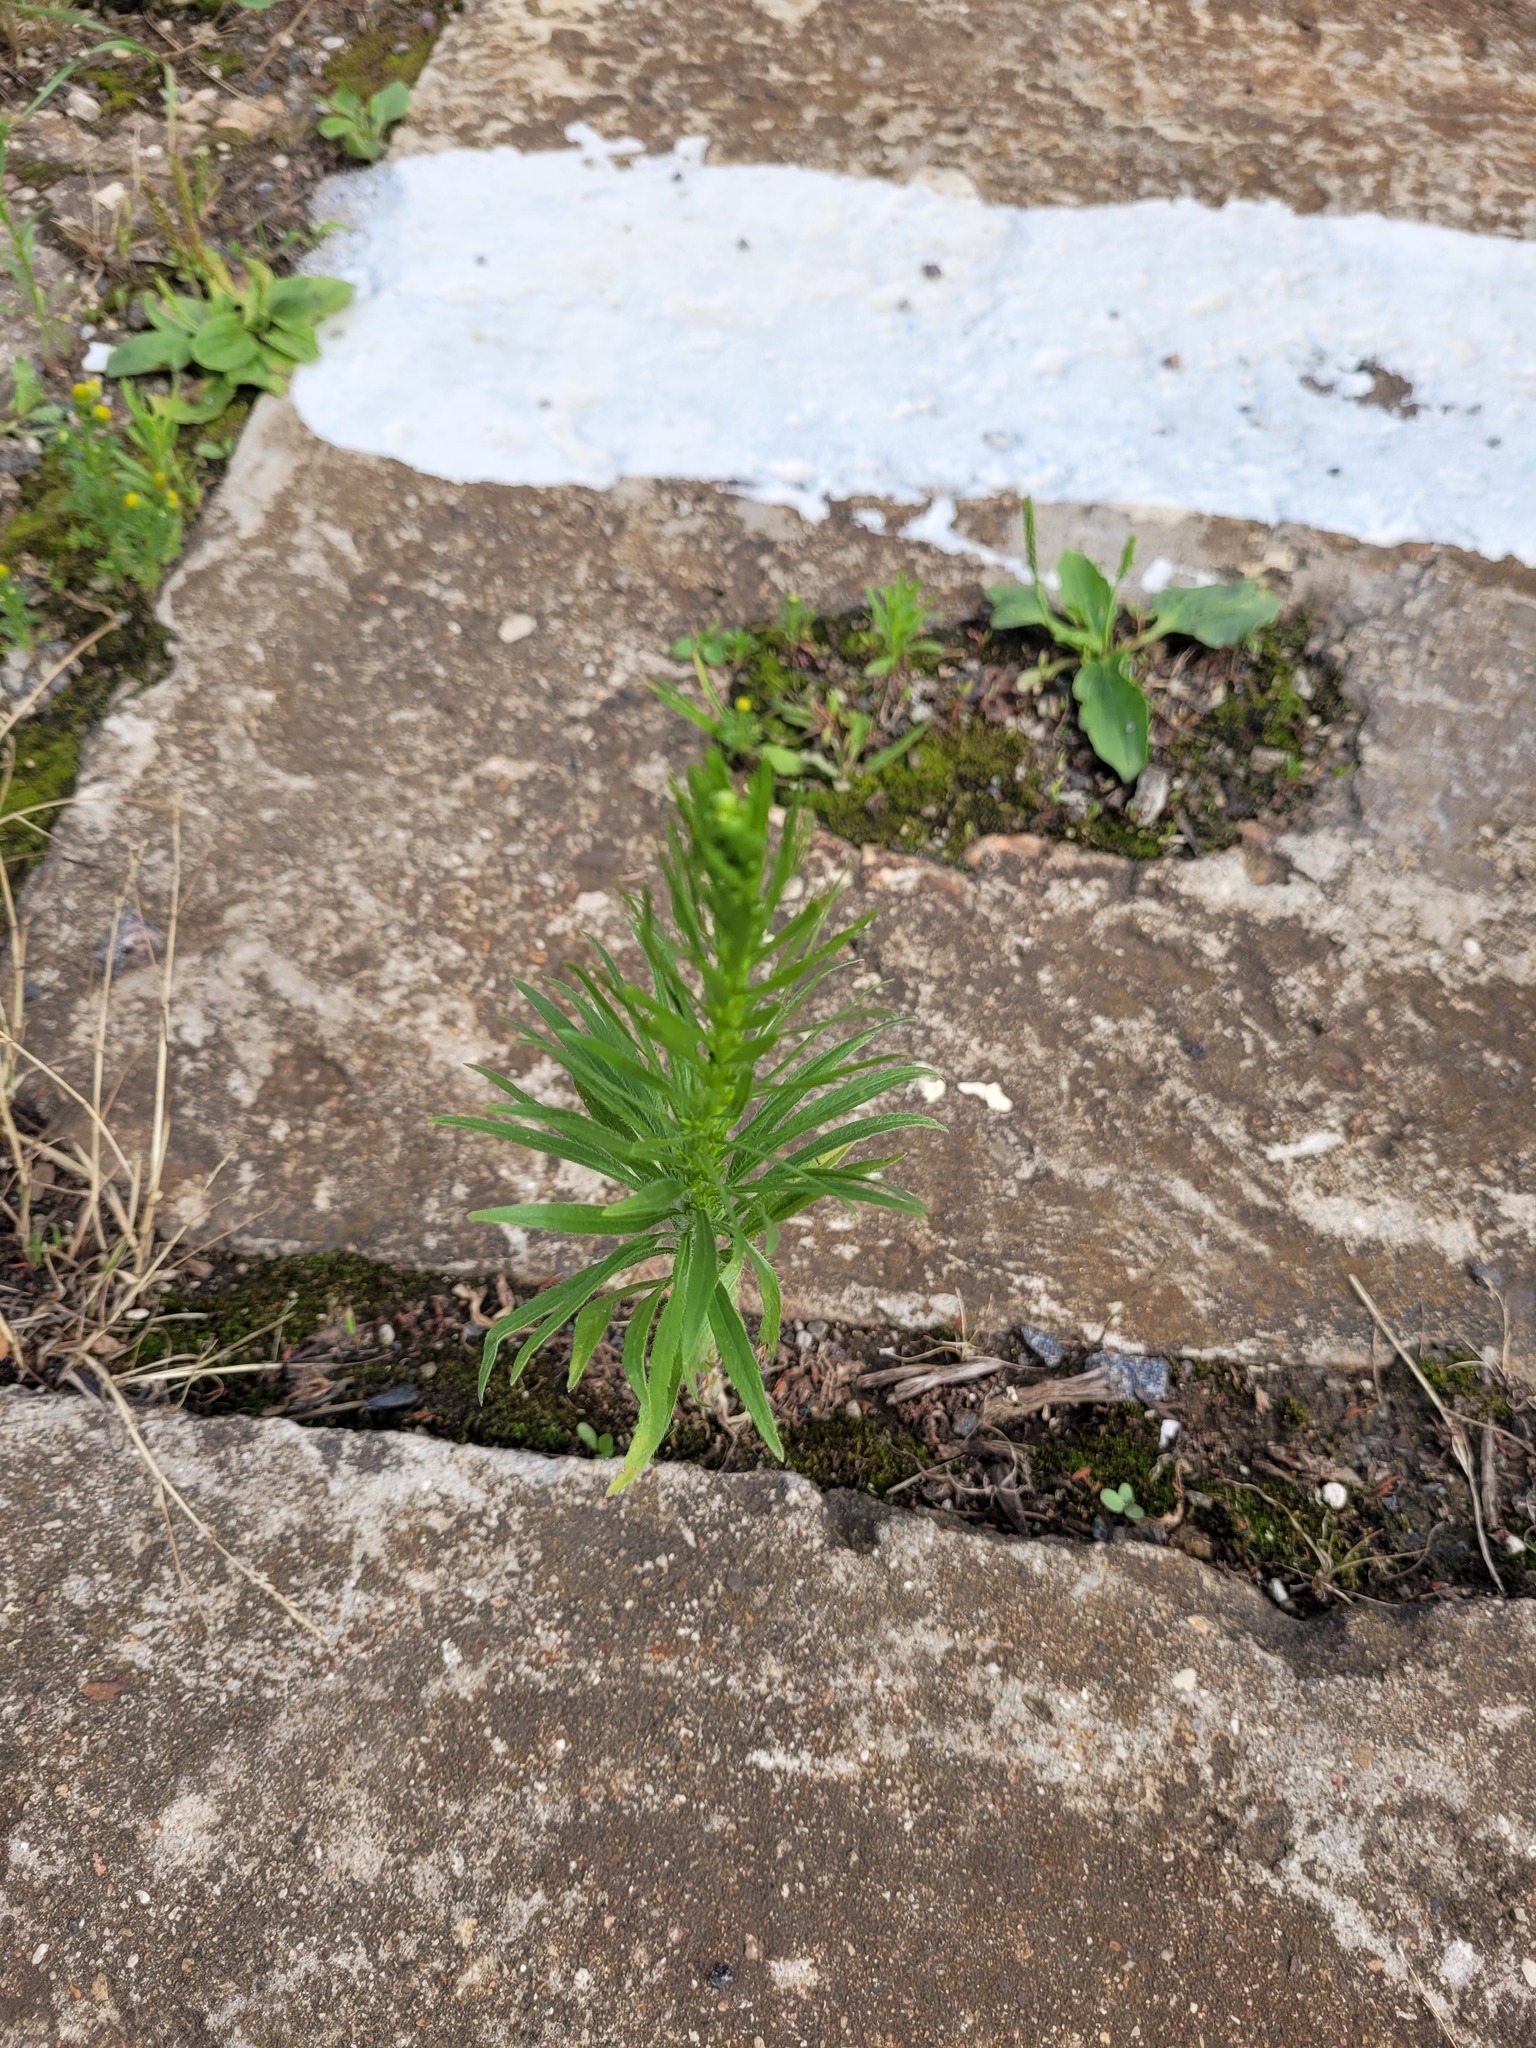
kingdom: Plantae
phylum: Tracheophyta
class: Magnoliopsida
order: Asterales
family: Asteraceae
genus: Erigeron
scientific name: Erigeron canadensis
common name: Canadian fleabane
